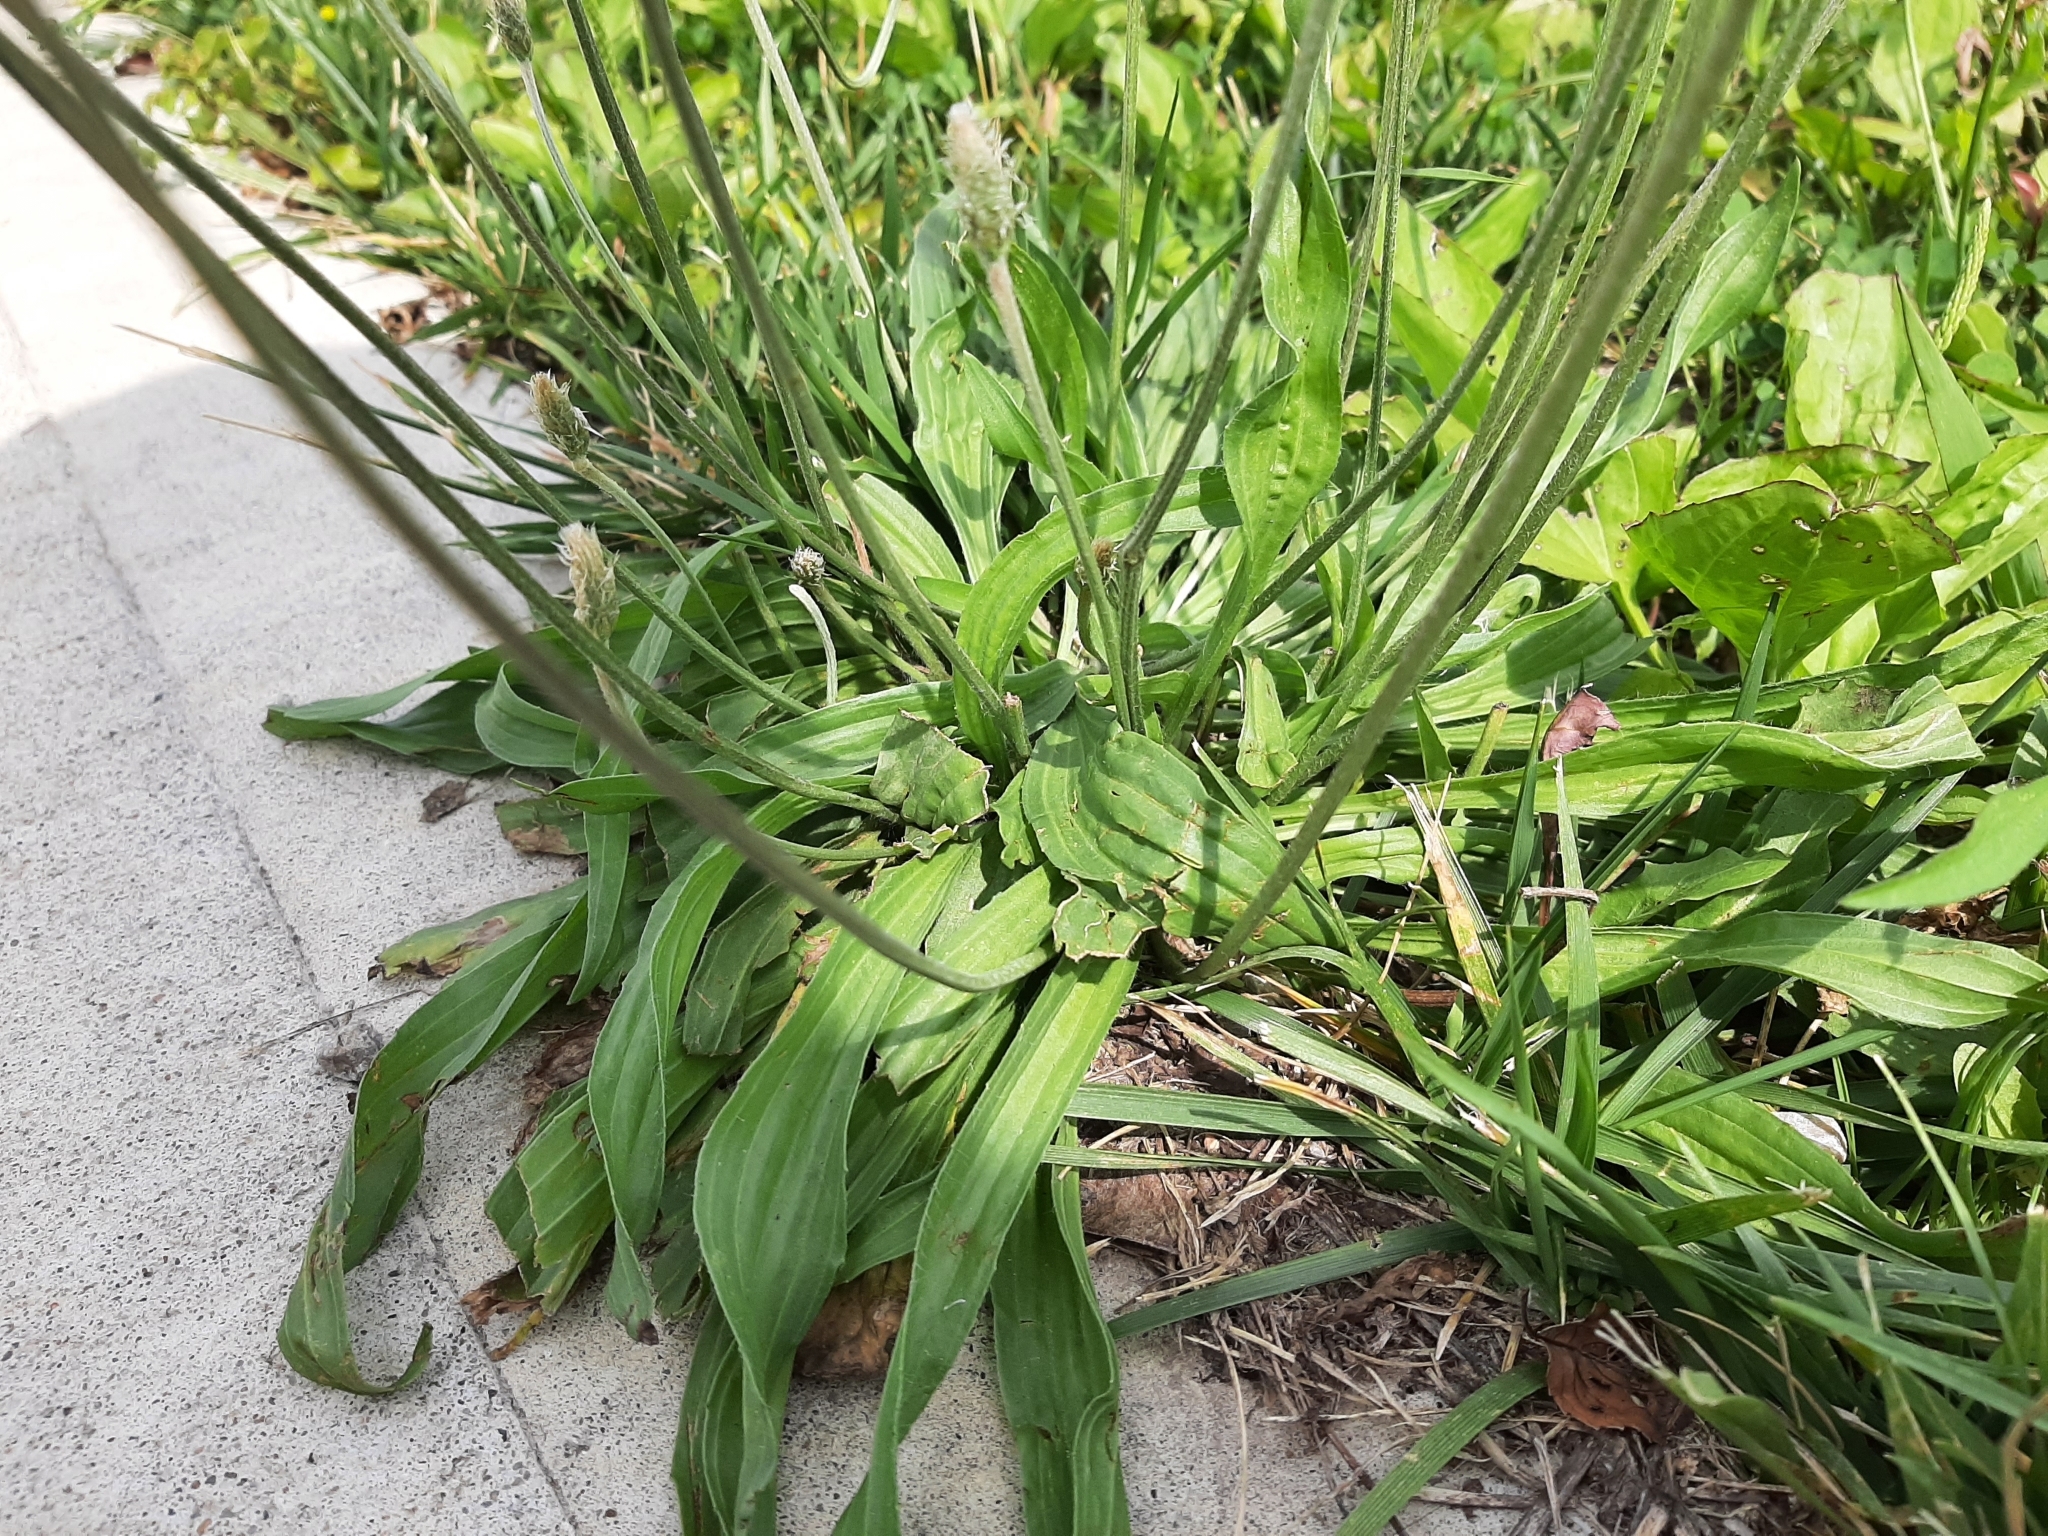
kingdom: Plantae
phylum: Tracheophyta
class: Magnoliopsida
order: Lamiales
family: Plantaginaceae
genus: Plantago
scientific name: Plantago lanceolata
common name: Ribwort plantain
